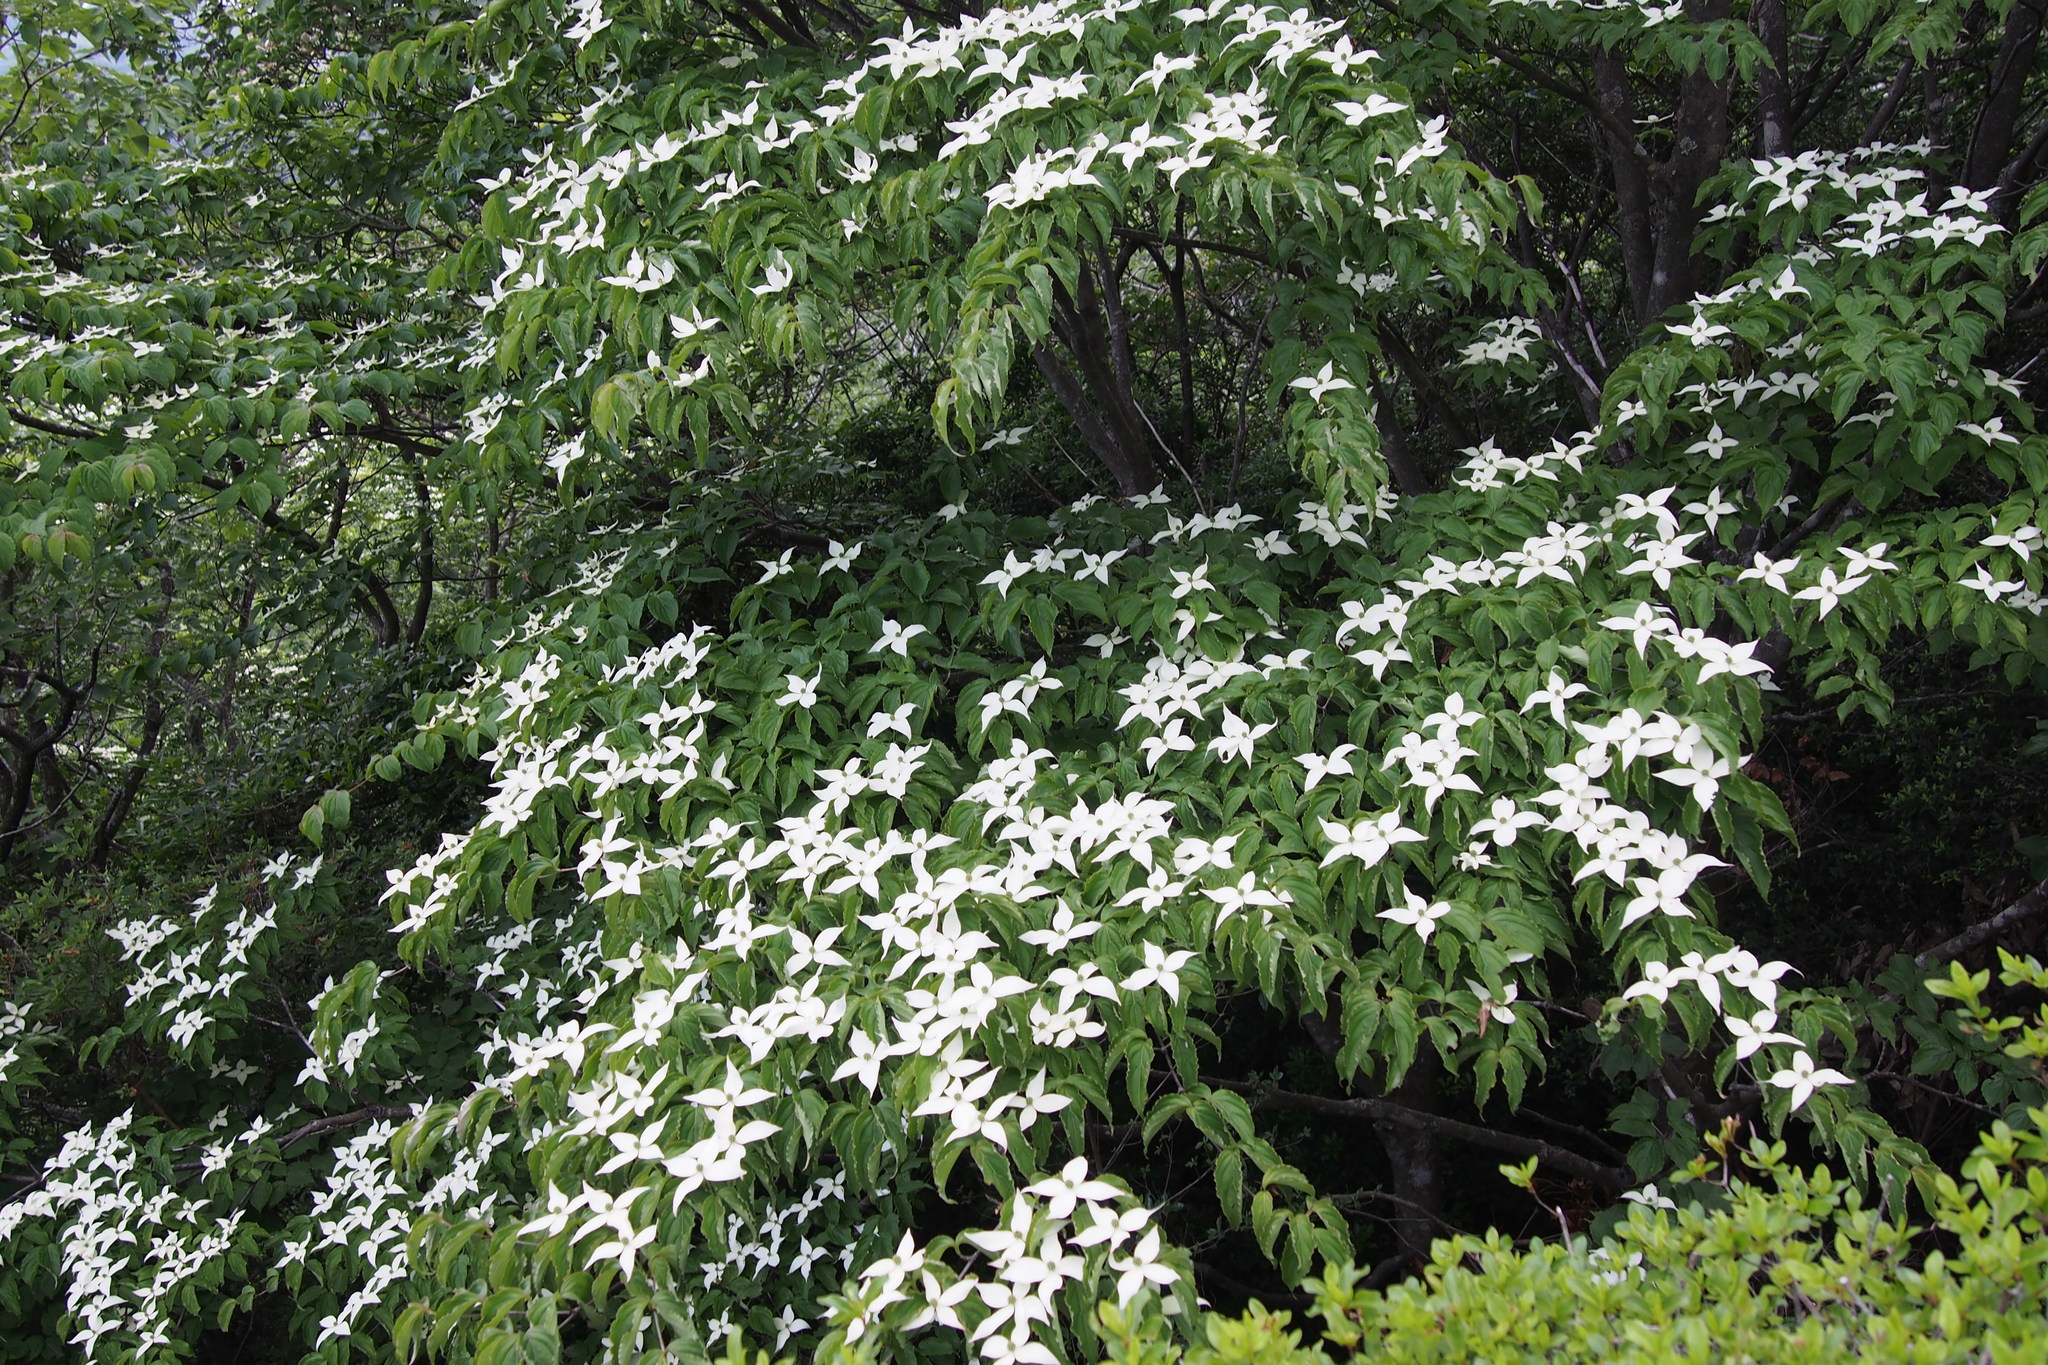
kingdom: Plantae
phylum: Tracheophyta
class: Magnoliopsida
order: Cornales
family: Cornaceae
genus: Cornus
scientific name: Cornus kousa
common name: Japanese dogwood
